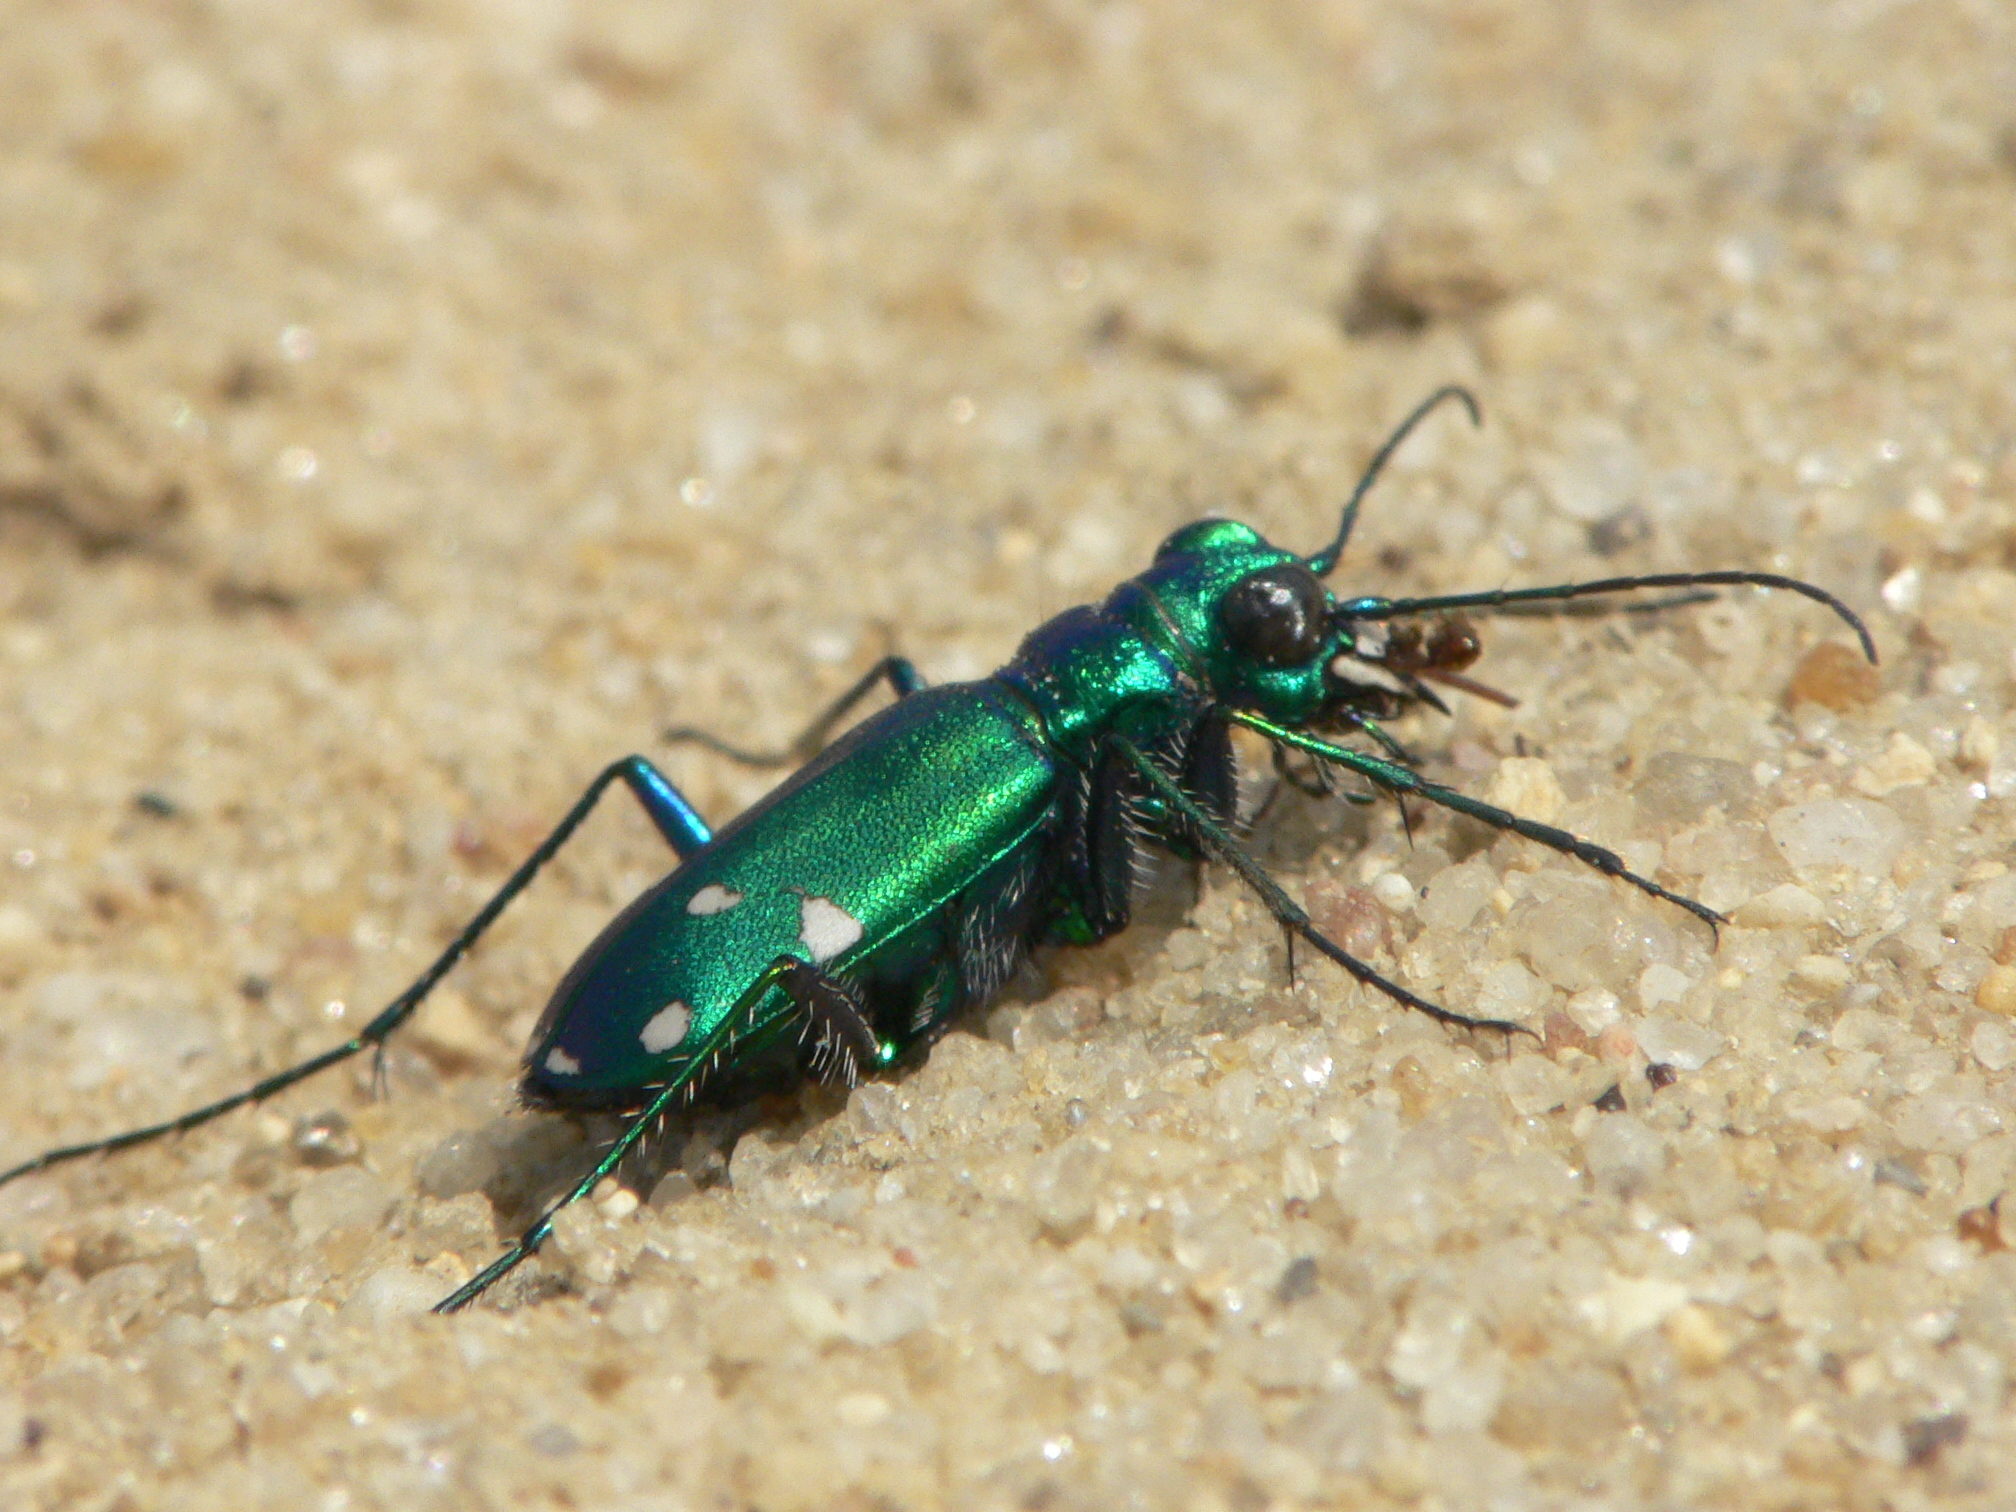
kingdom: Animalia
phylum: Arthropoda
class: Insecta
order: Coleoptera
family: Carabidae
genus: Cicindela
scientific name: Cicindela sexguttata
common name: Six-spotted tiger beetle
